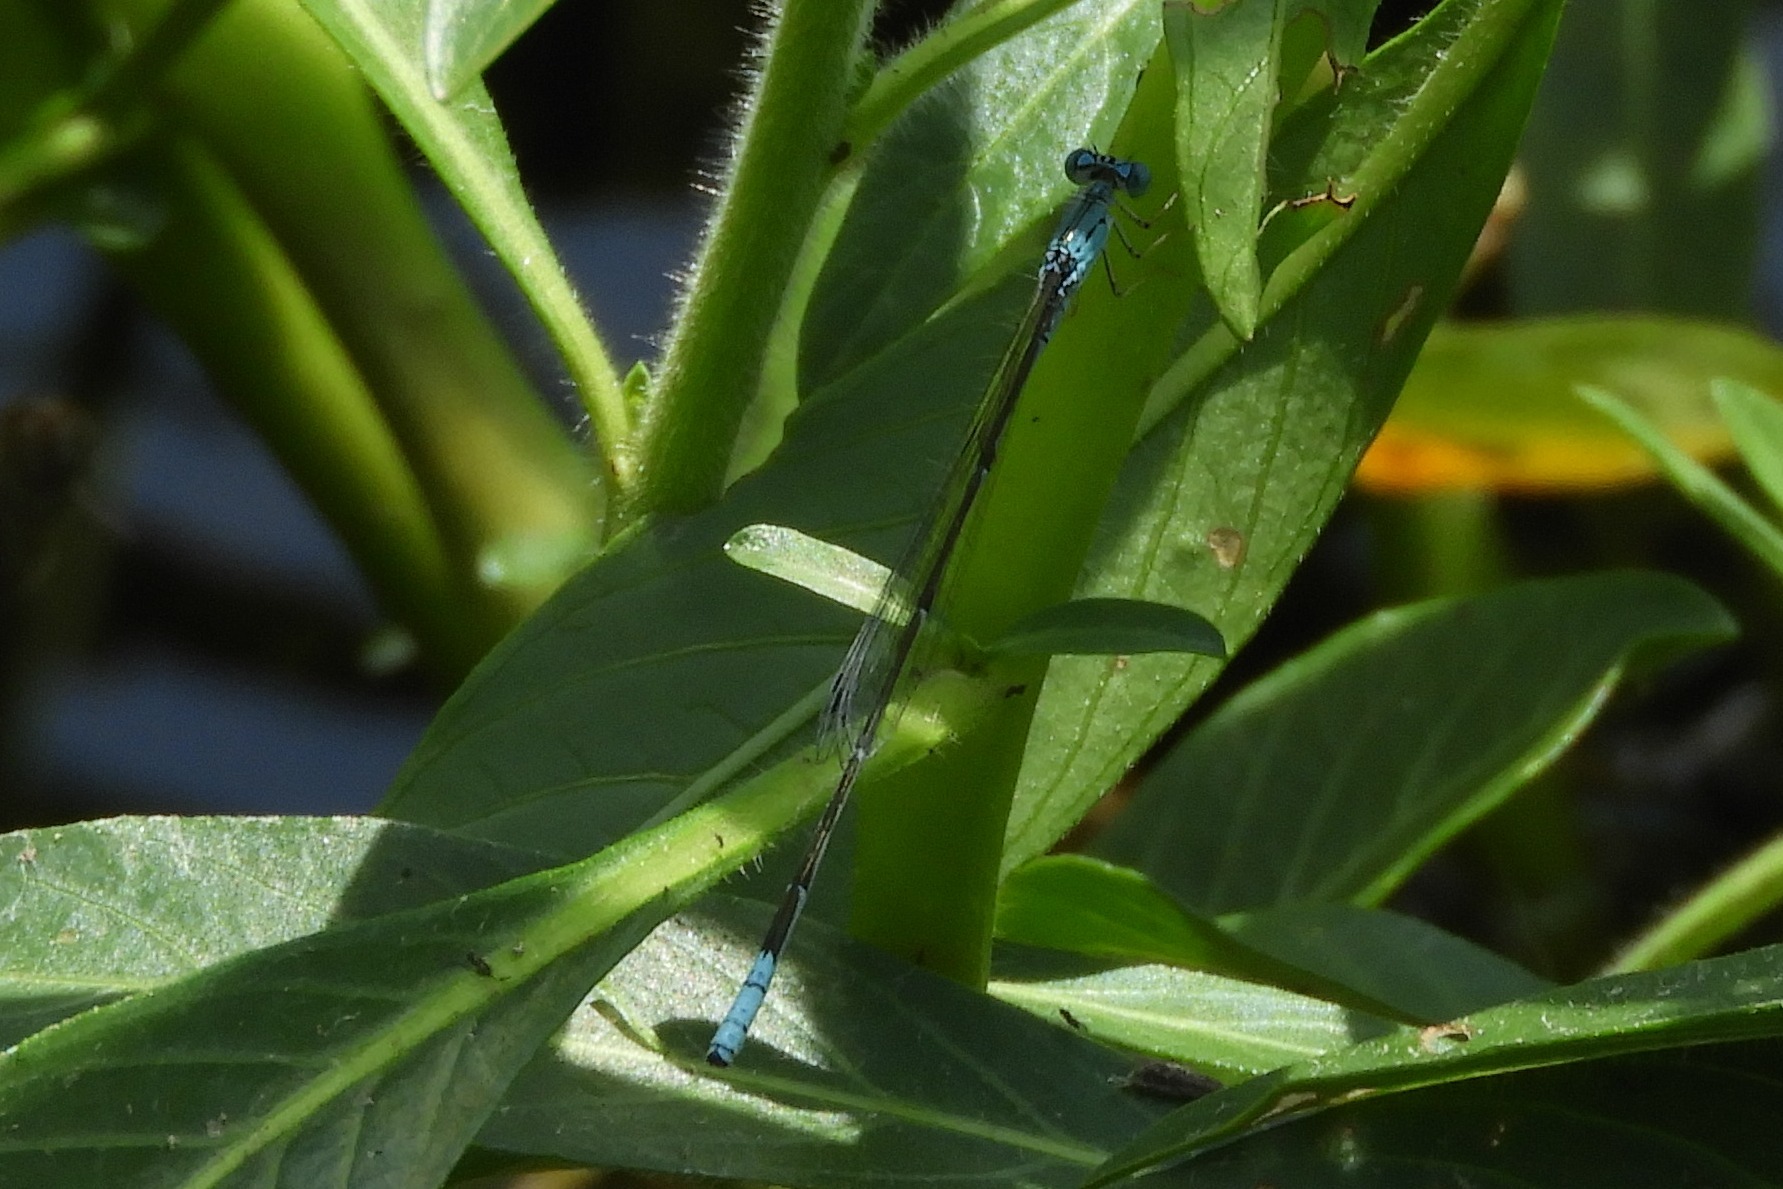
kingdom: Animalia
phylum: Arthropoda
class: Insecta
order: Odonata
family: Coenagrionidae
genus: Enallagma
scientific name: Enallagma daeckii
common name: Attenuated bluet
